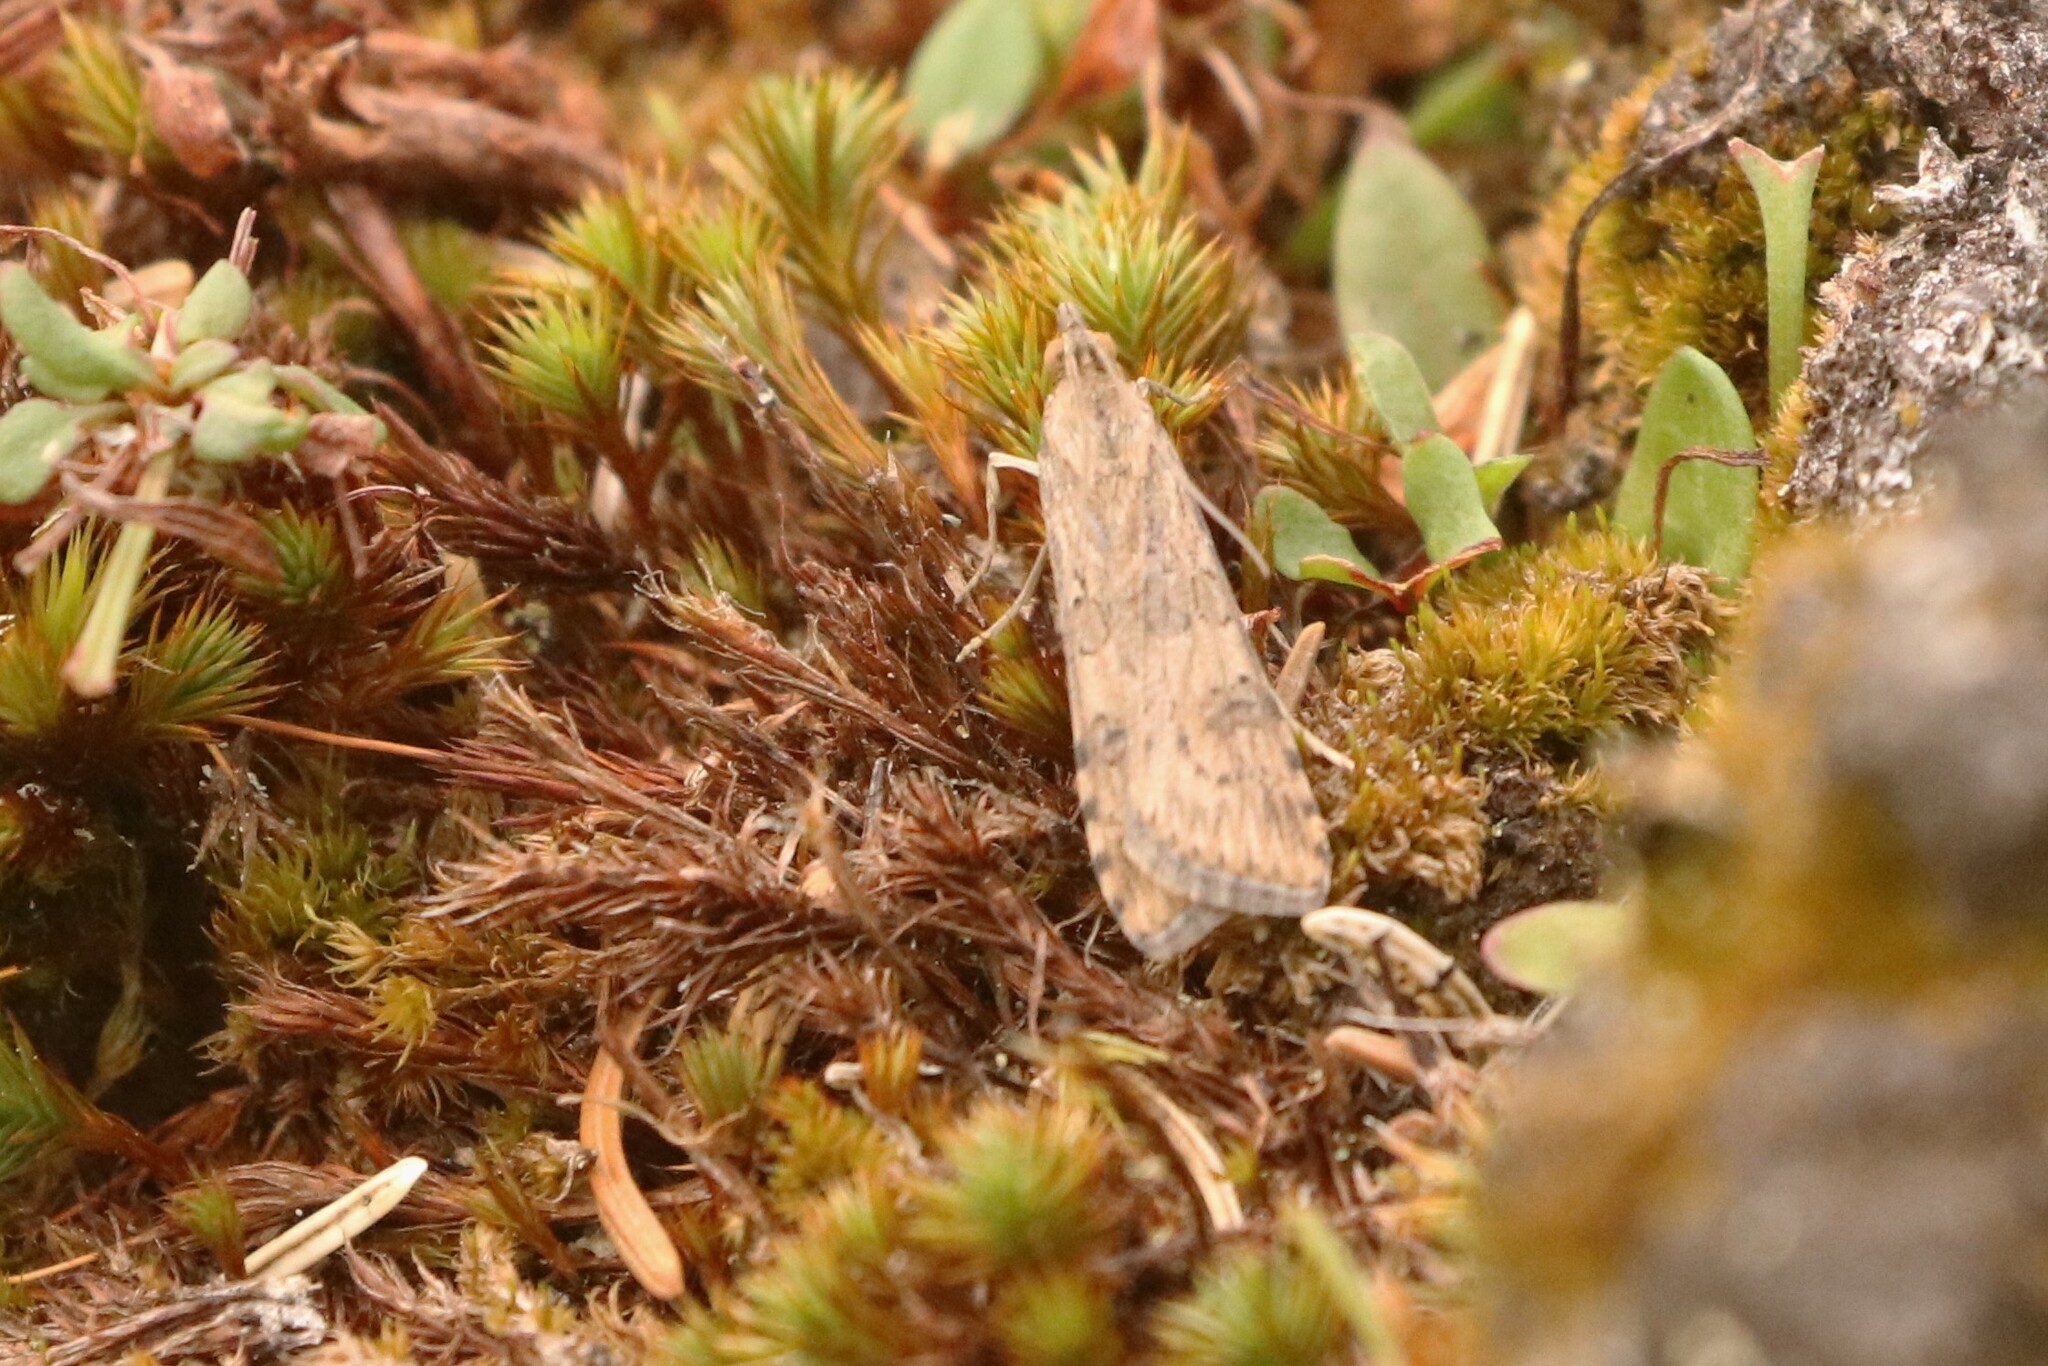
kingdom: Animalia
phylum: Arthropoda
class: Insecta
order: Lepidoptera
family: Crambidae
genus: Nomophila
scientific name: Nomophila nearctica
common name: American rush veneer
